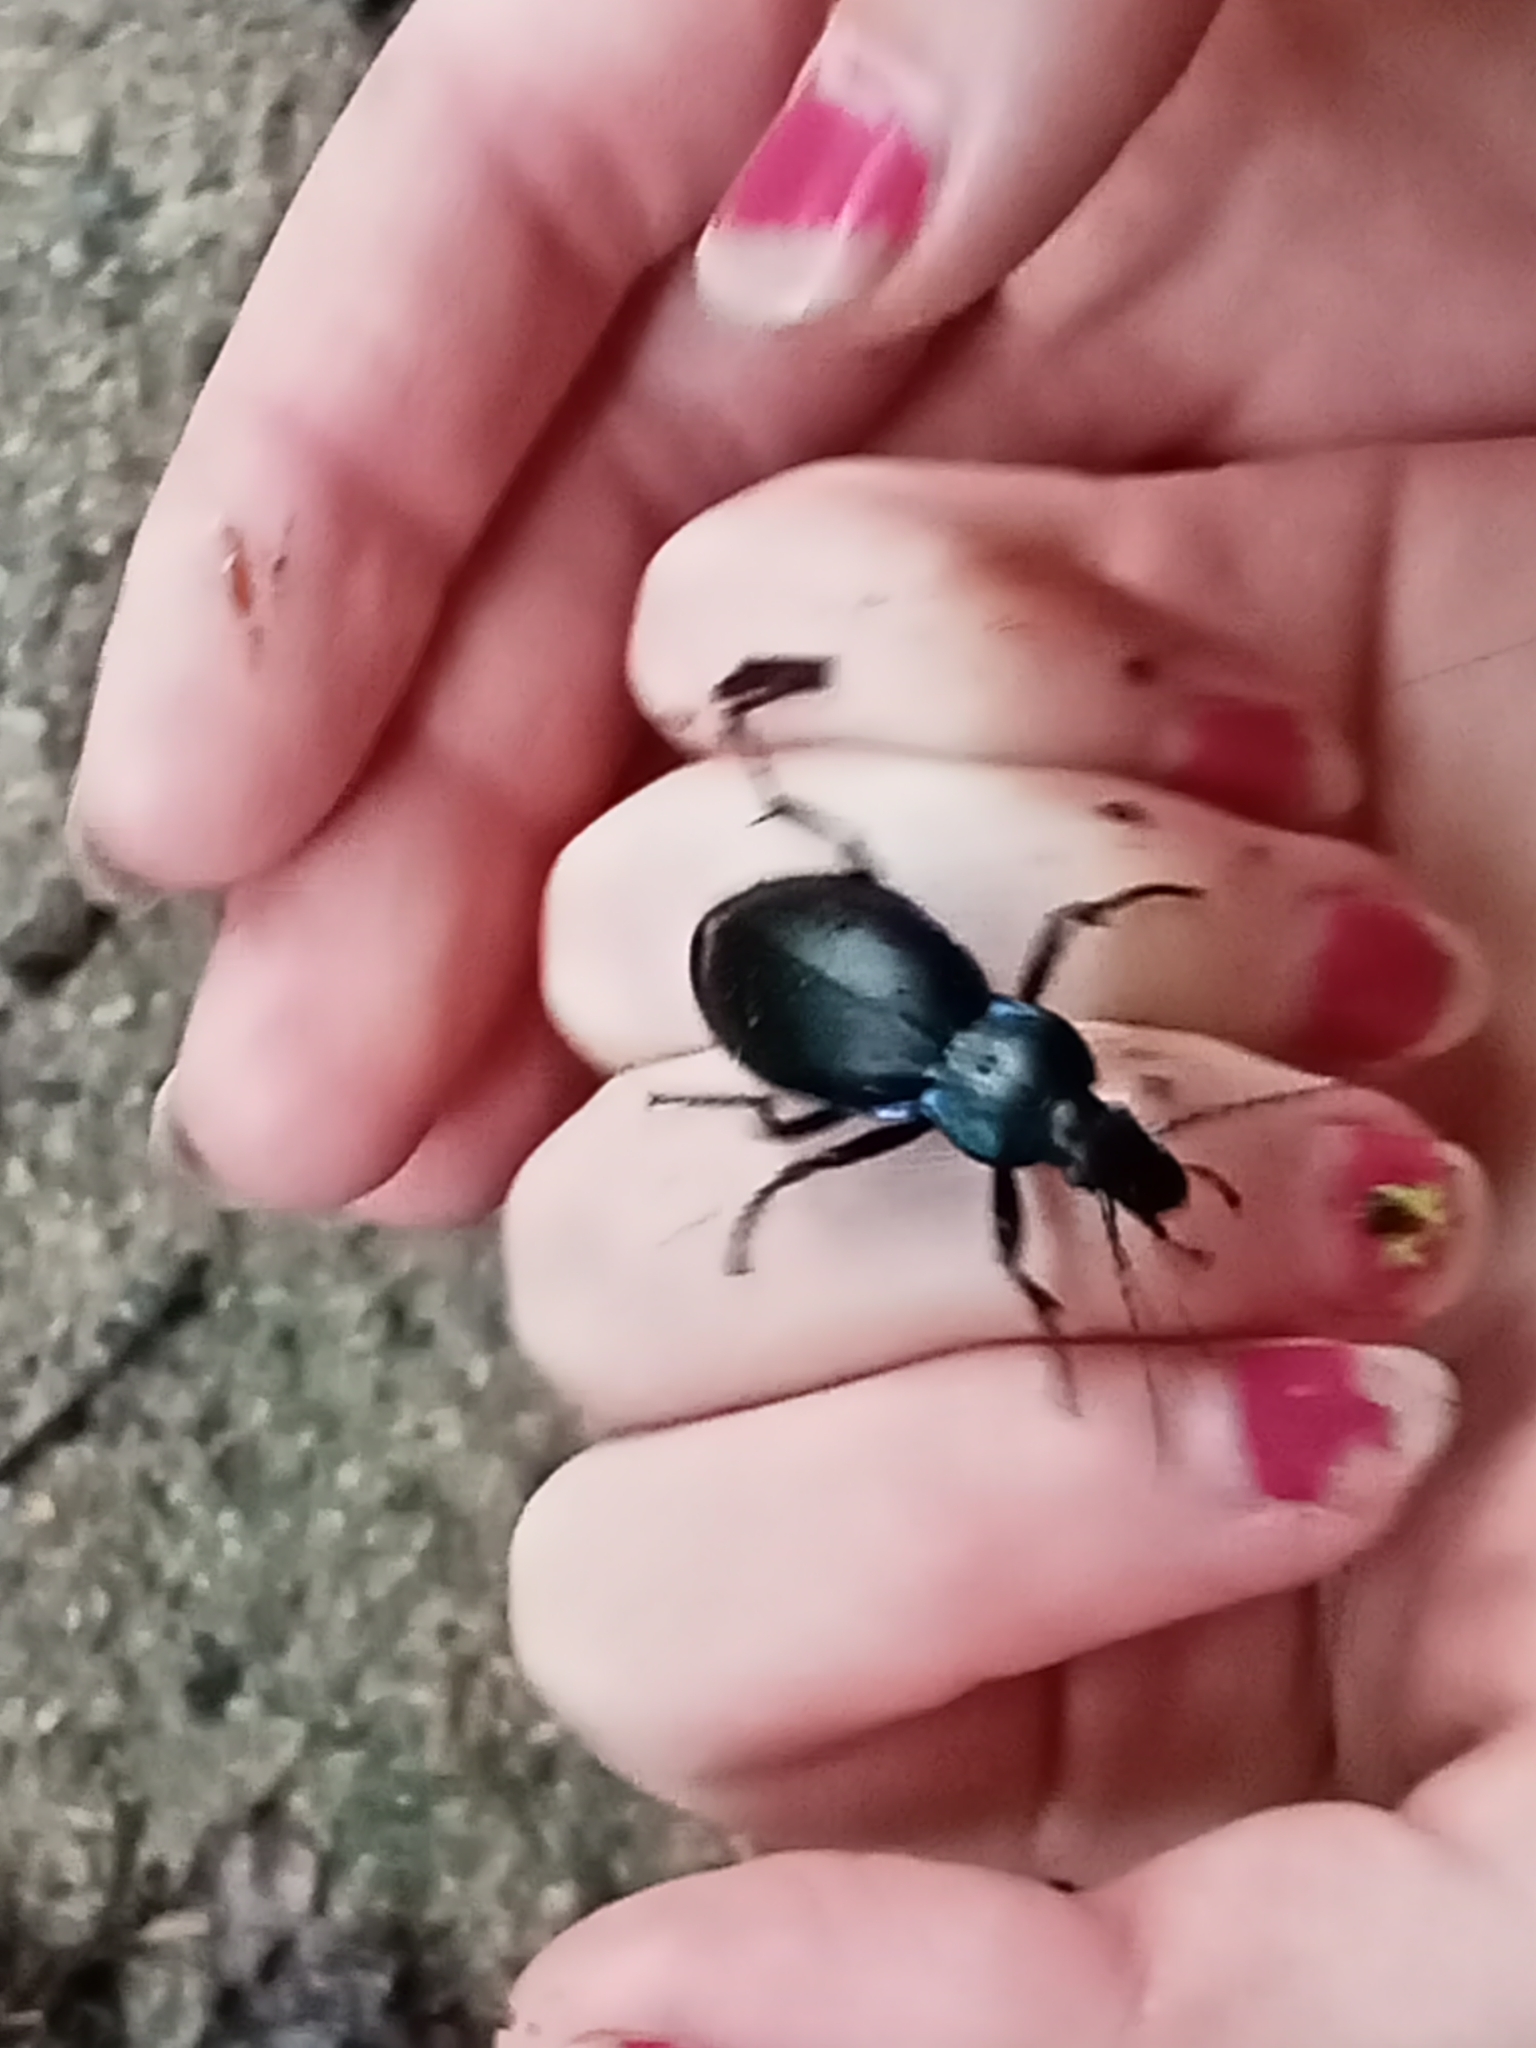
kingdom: Animalia
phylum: Arthropoda
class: Insecta
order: Coleoptera
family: Carabidae
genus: Carabus
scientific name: Carabus violaceus
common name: Violet ground beetle
